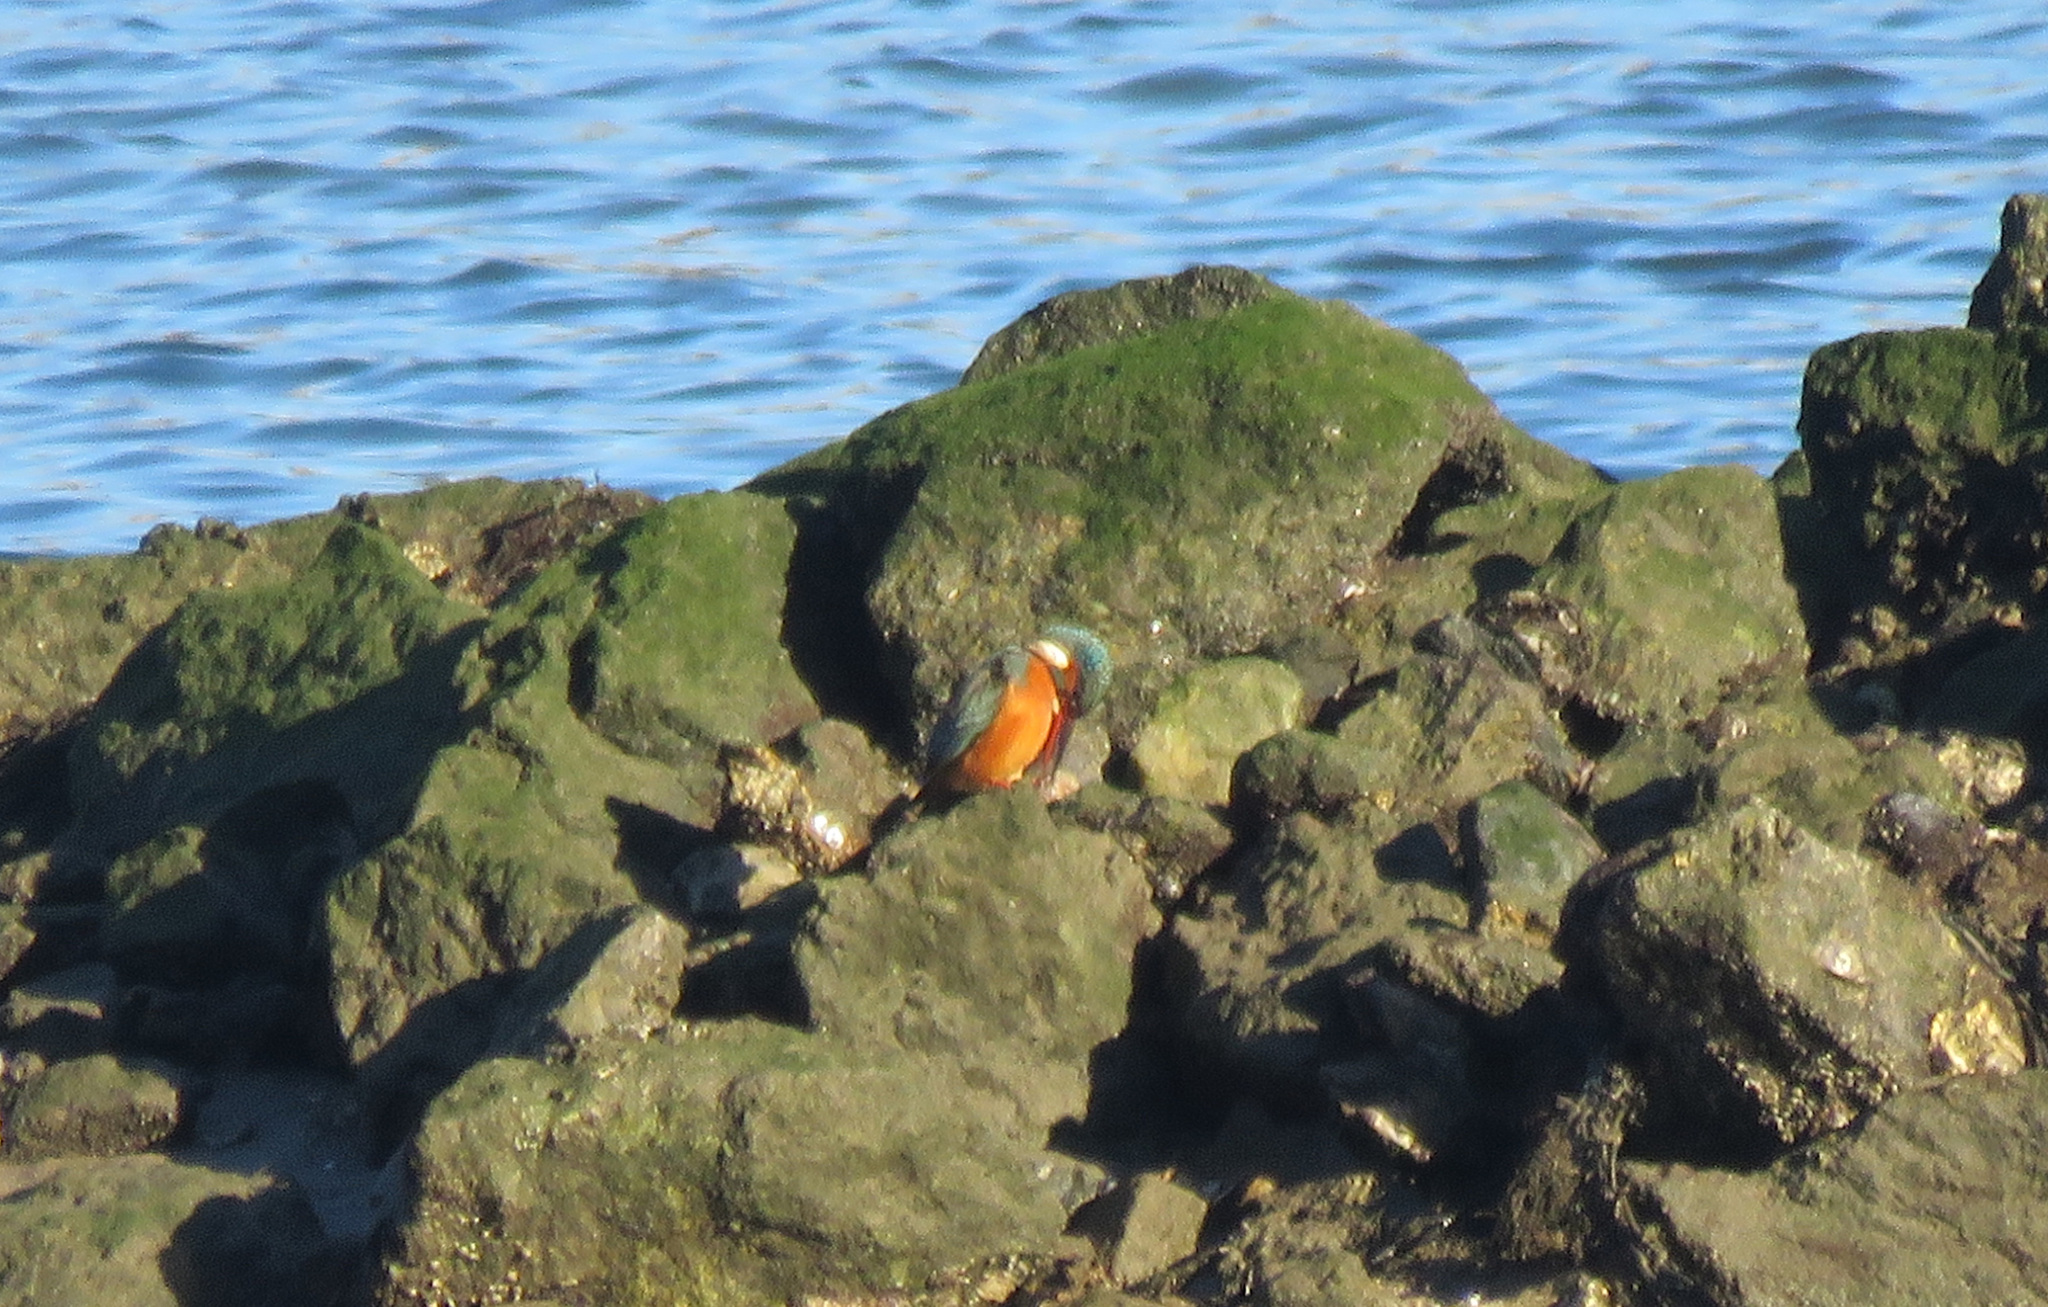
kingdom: Animalia
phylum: Chordata
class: Aves
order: Coraciiformes
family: Alcedinidae
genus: Alcedo
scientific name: Alcedo atthis
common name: Common kingfisher
